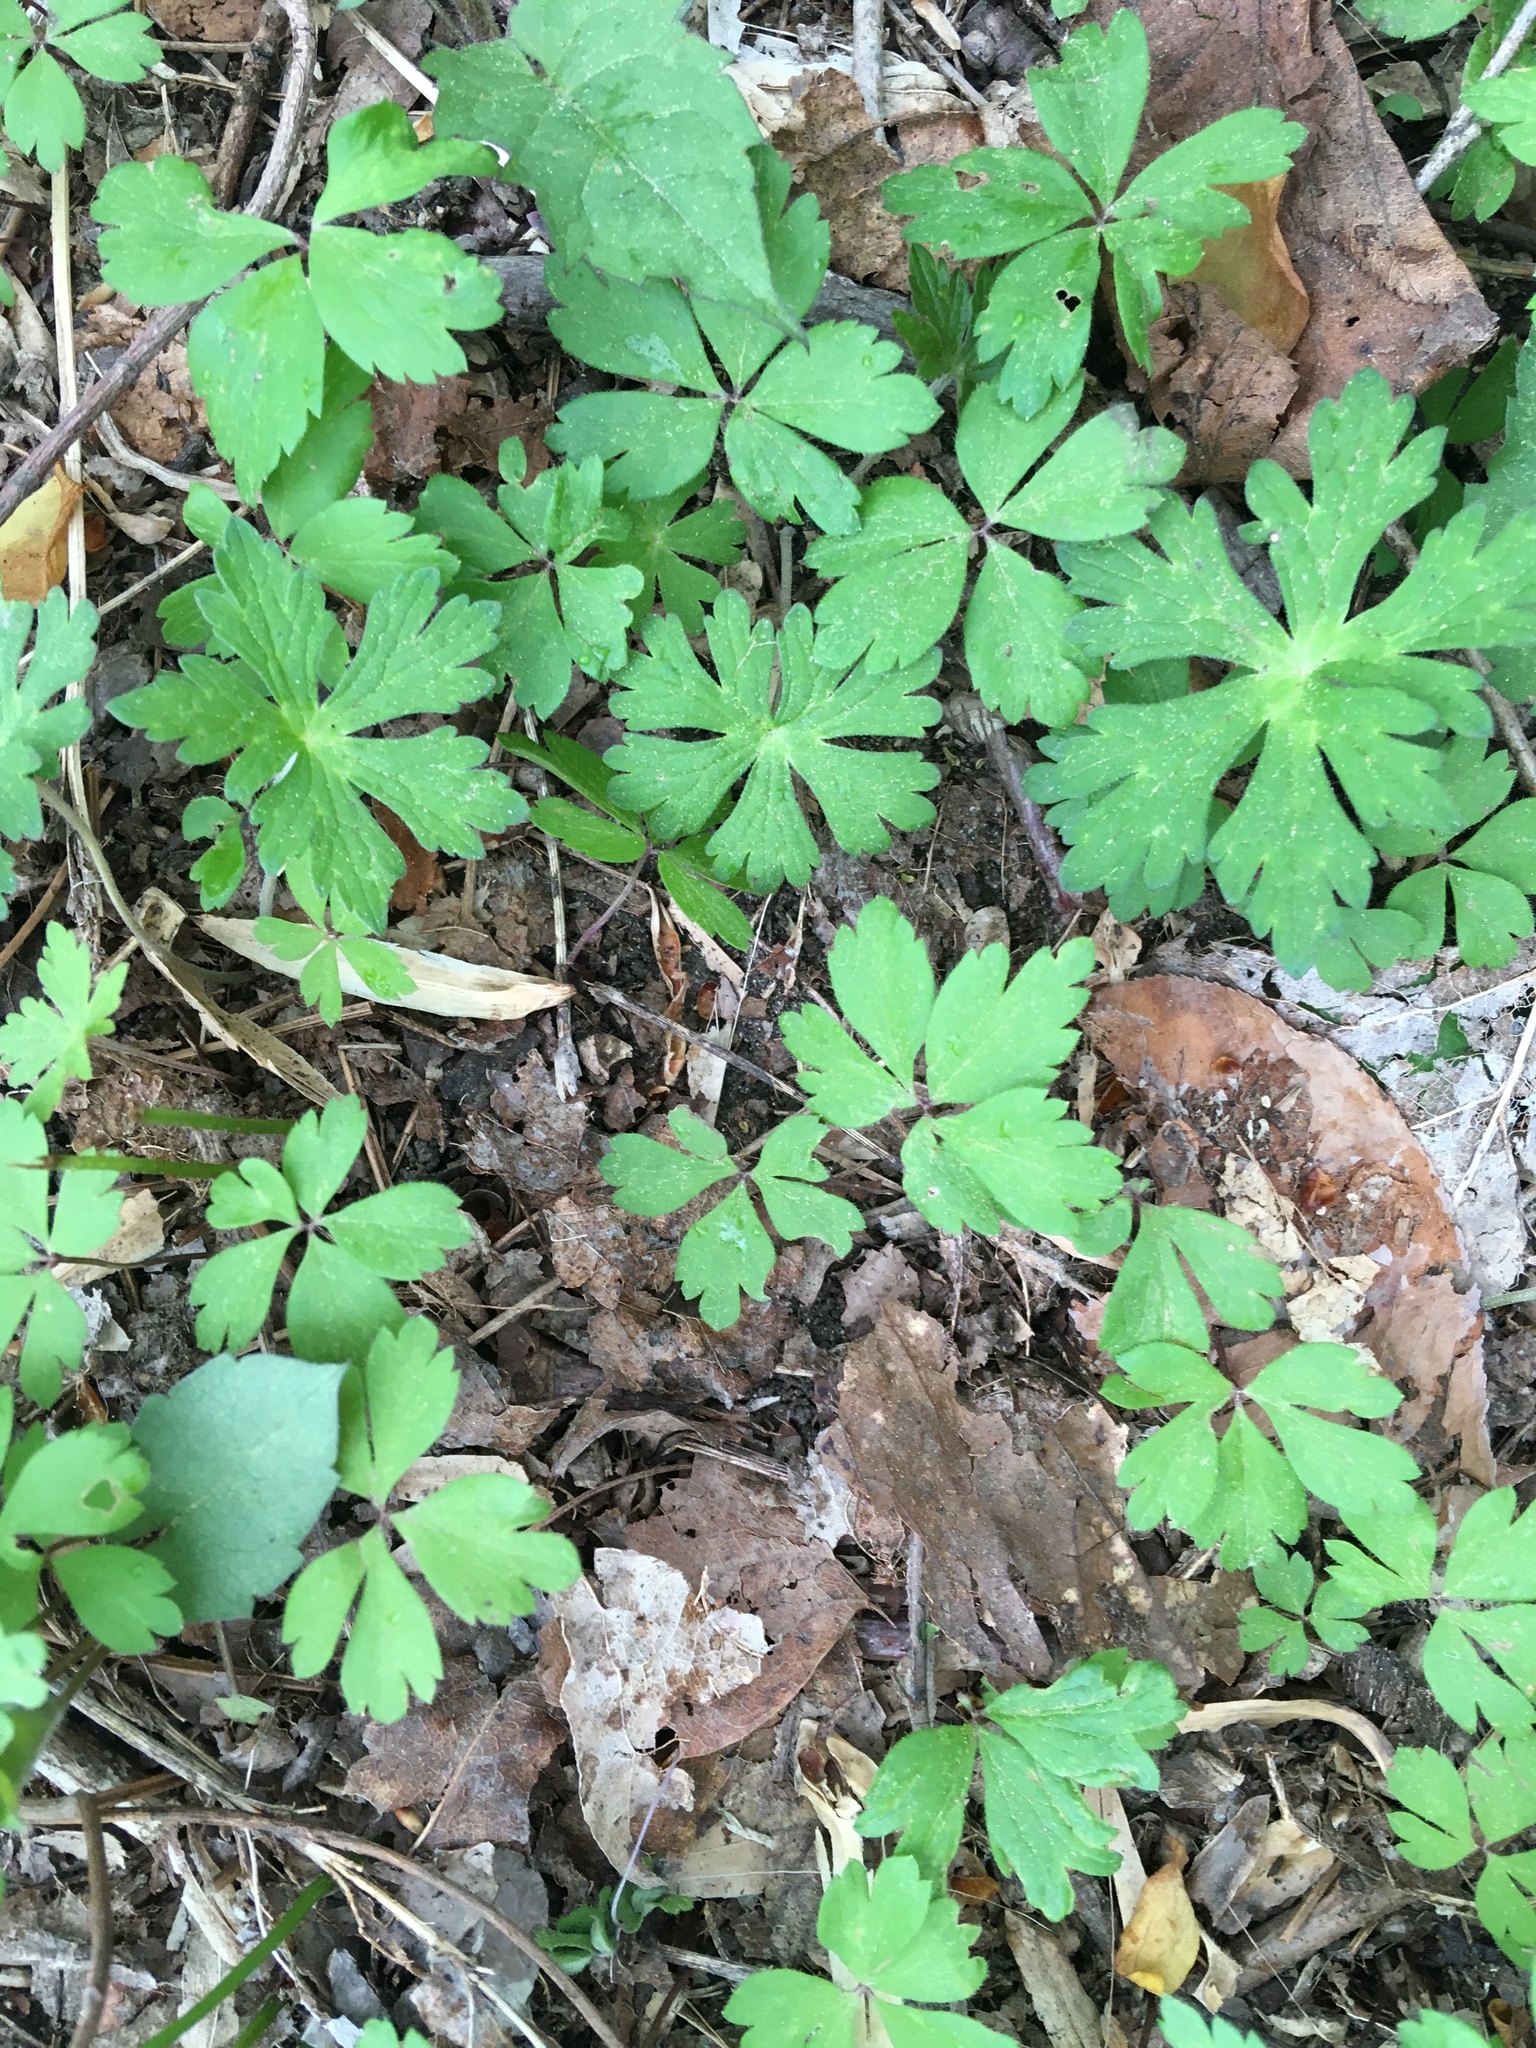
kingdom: Plantae
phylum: Tracheophyta
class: Magnoliopsida
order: Ranunculales
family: Ranunculaceae
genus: Anemone
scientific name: Anemone quinquefolia
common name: Wood anemone
